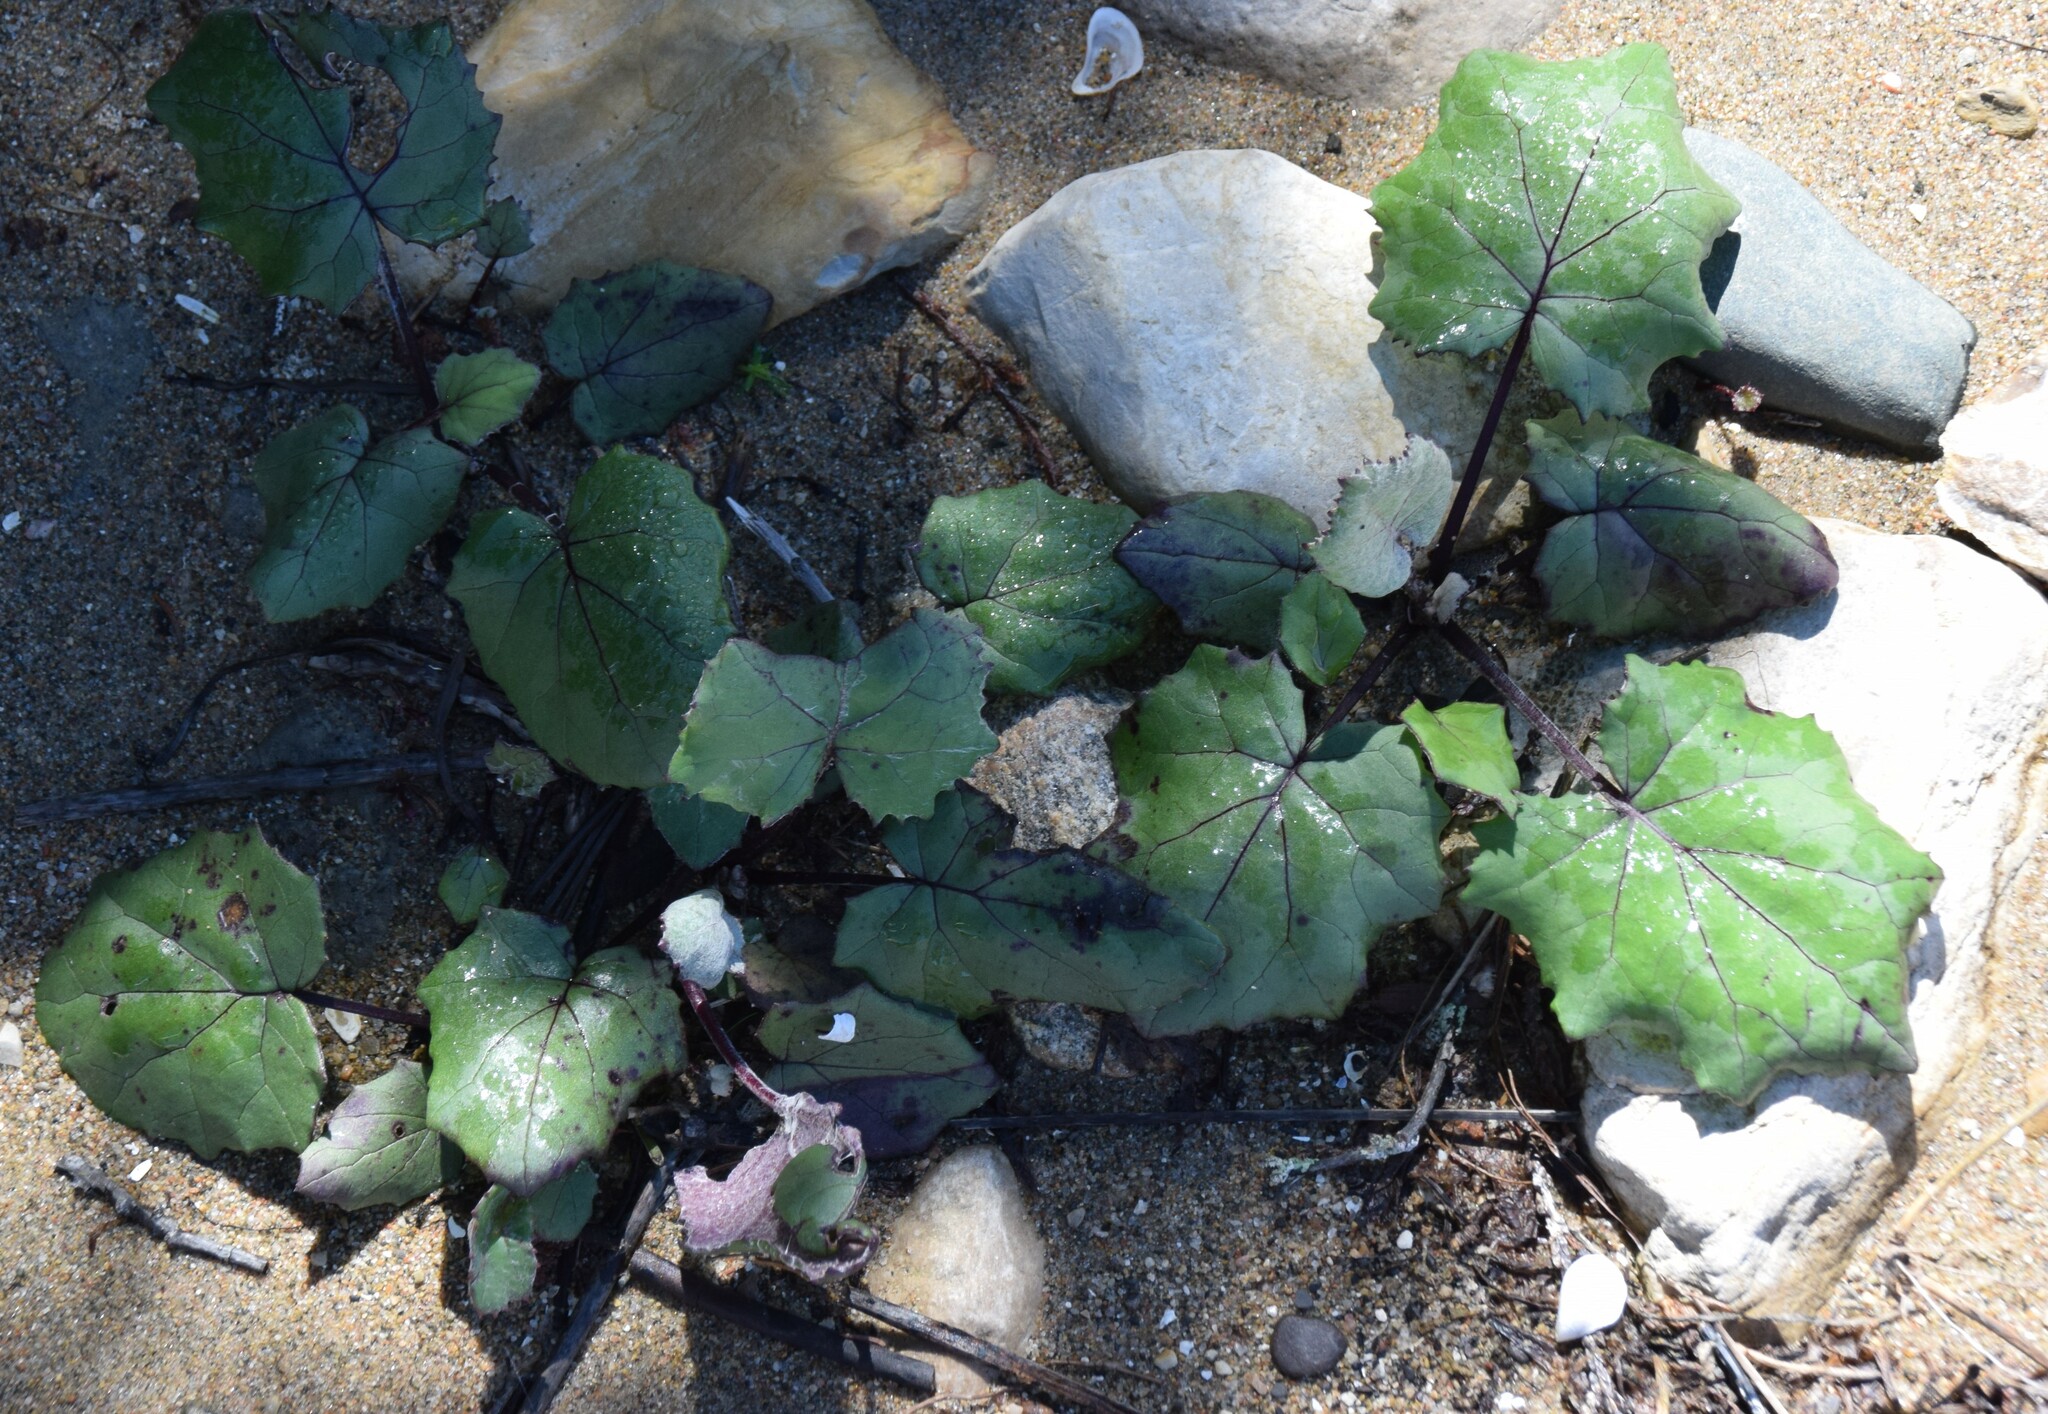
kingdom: Plantae
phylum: Tracheophyta
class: Magnoliopsida
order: Asterales
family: Asteraceae
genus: Tussilago
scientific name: Tussilago farfara
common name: Coltsfoot
